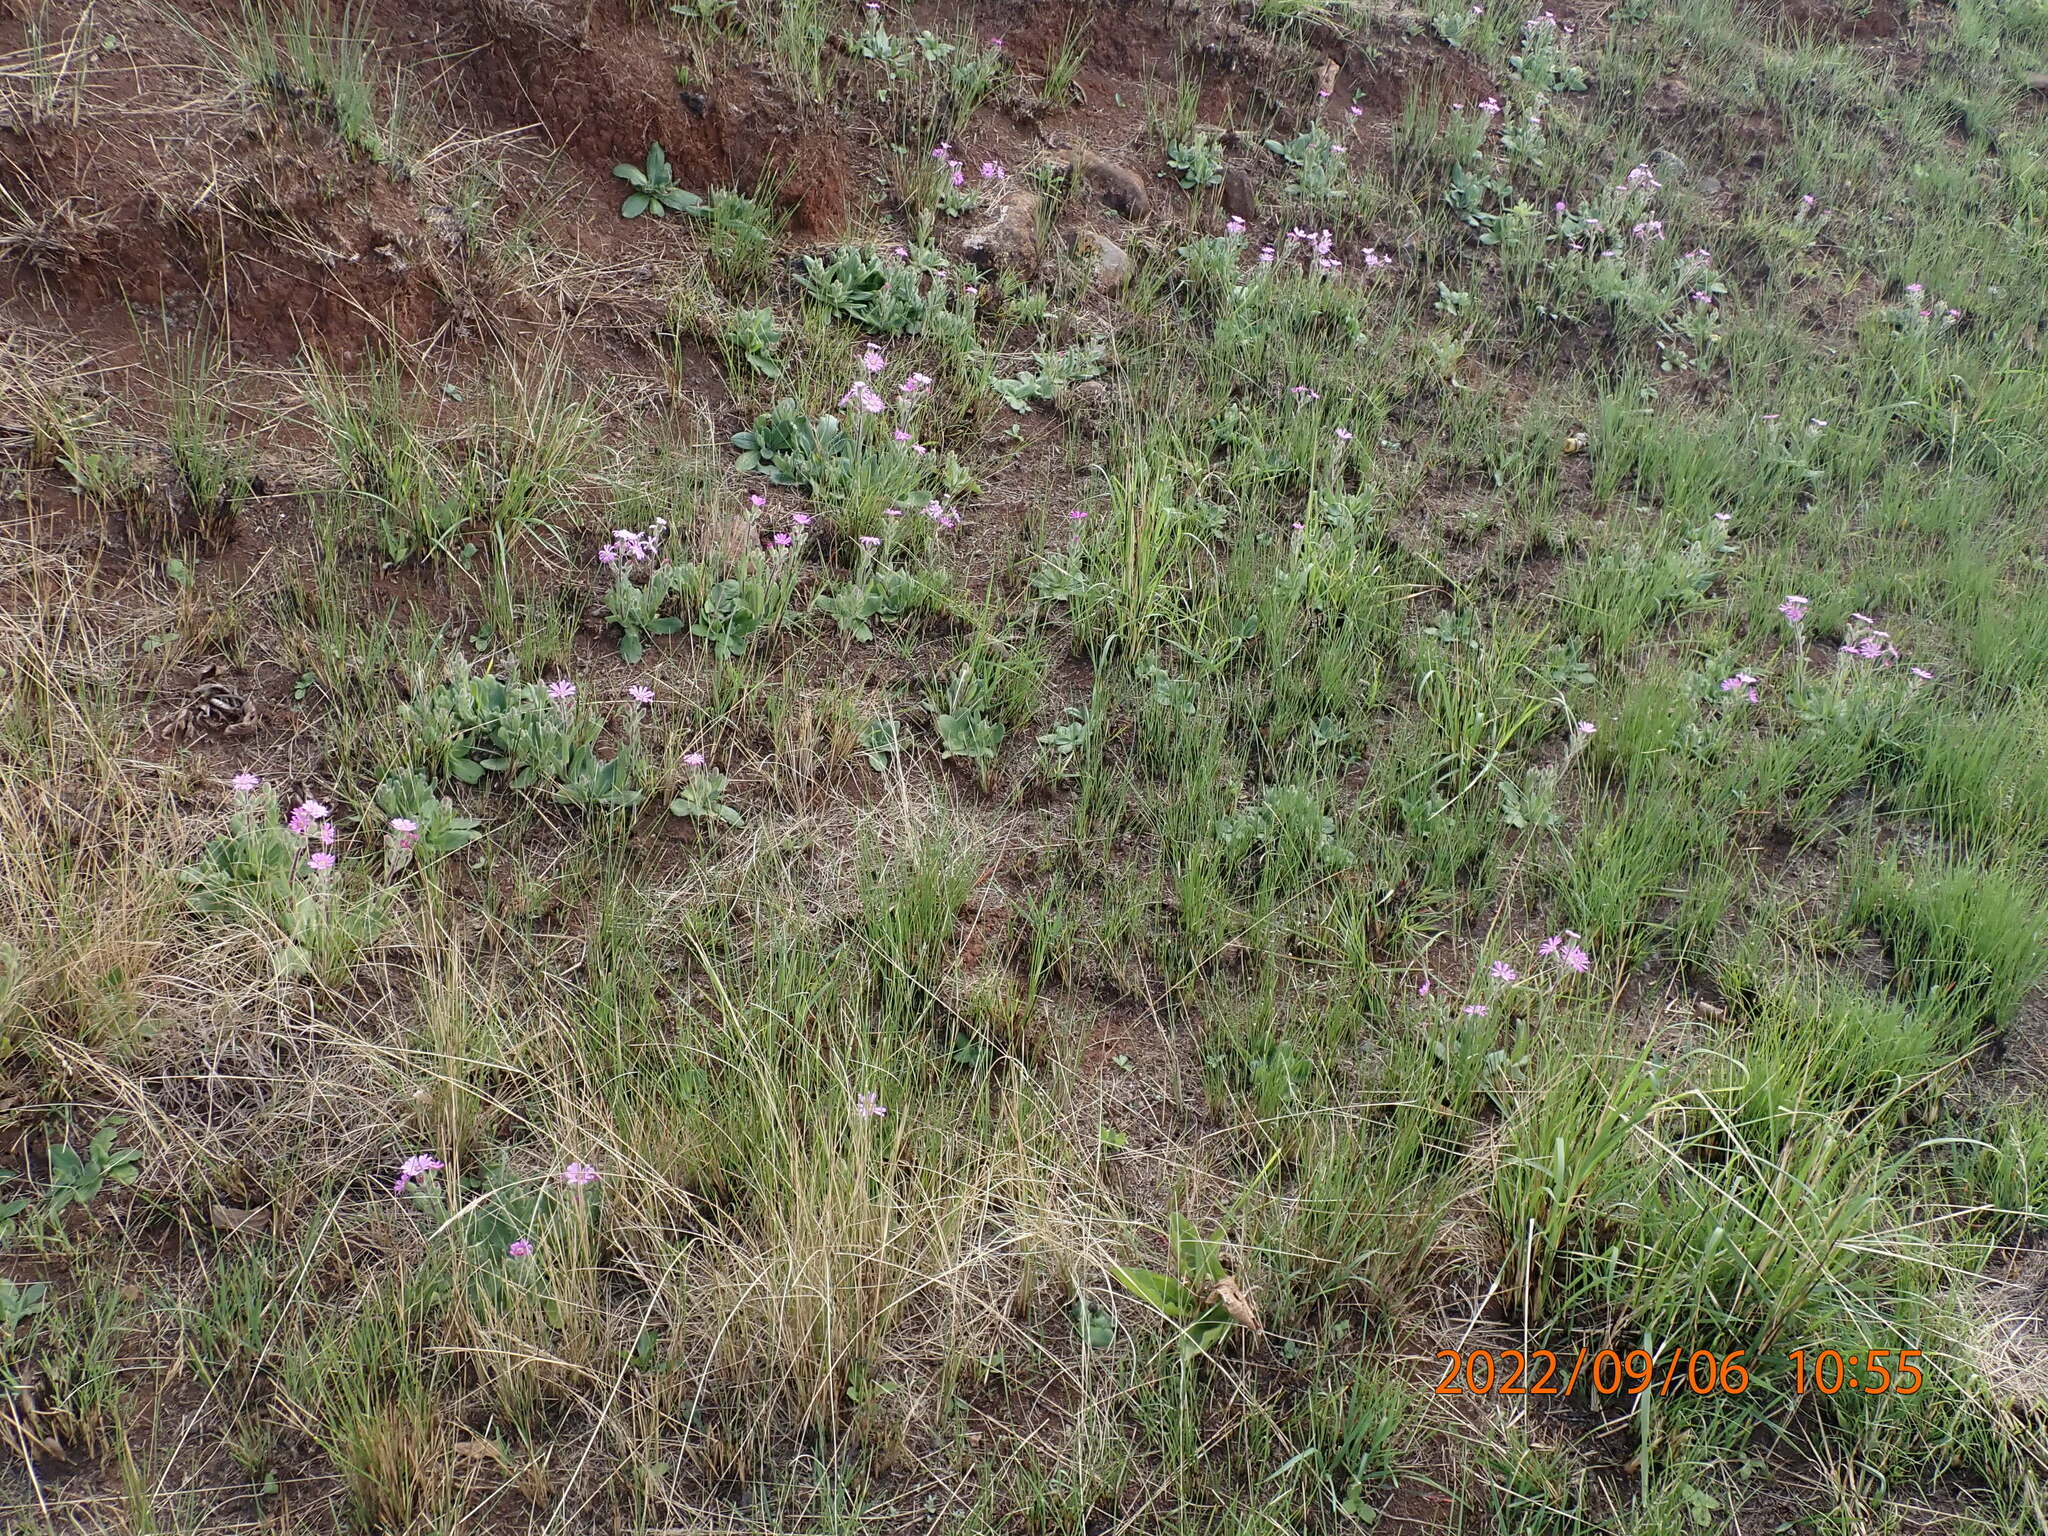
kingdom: Plantae
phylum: Tracheophyta
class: Magnoliopsida
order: Asterales
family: Asteraceae
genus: Senecio
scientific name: Senecio speciosus
